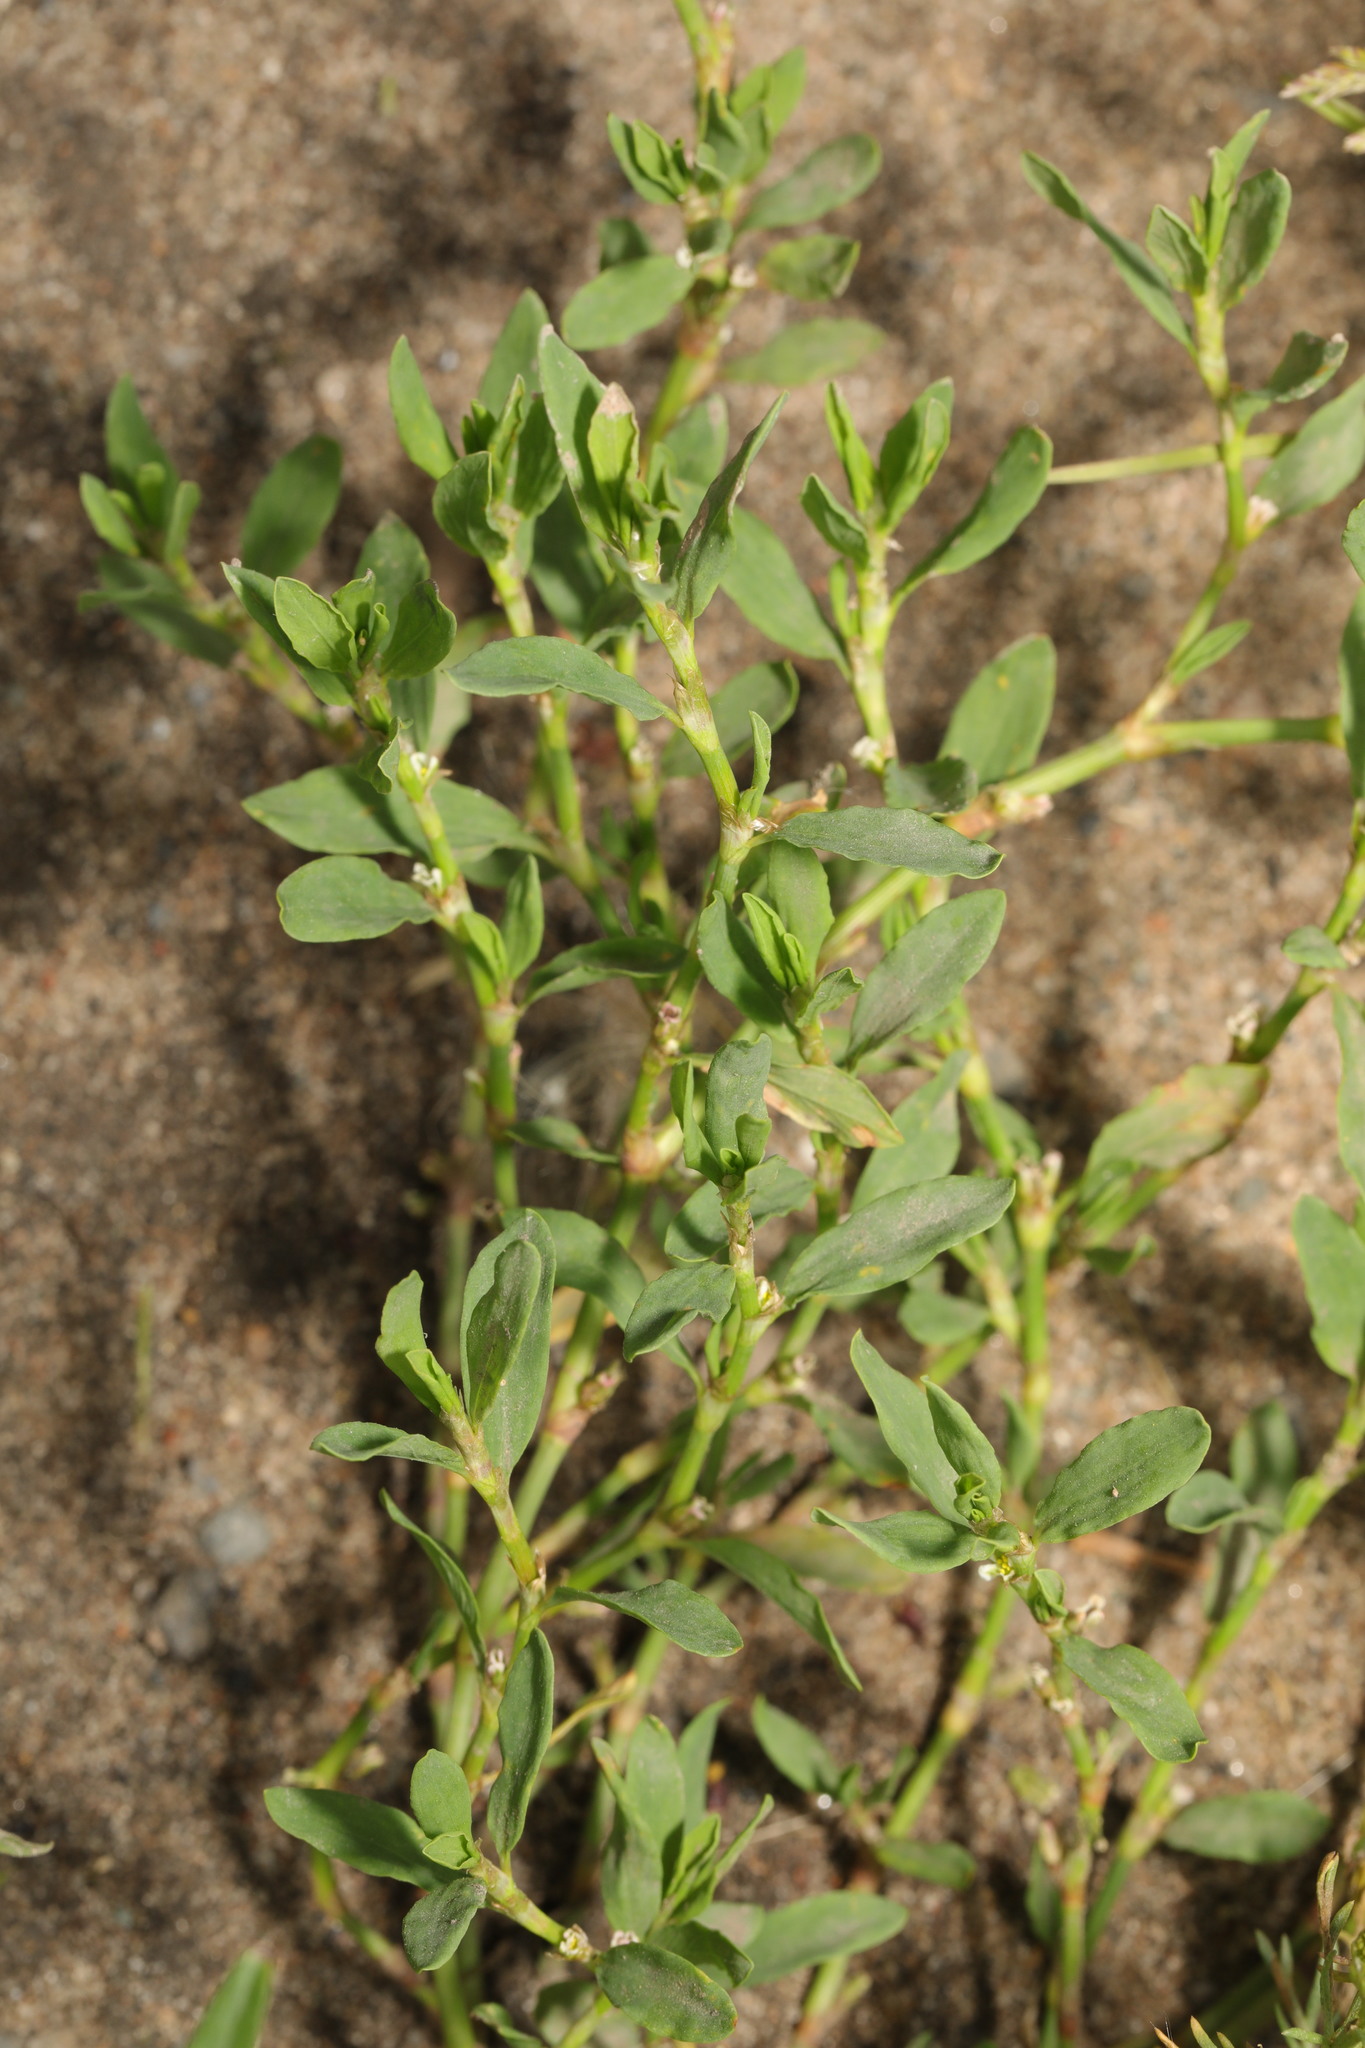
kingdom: Plantae
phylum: Tracheophyta
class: Magnoliopsida
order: Caryophyllales
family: Polygonaceae
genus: Polygonum
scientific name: Polygonum aviculare
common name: Prostrate knotweed
